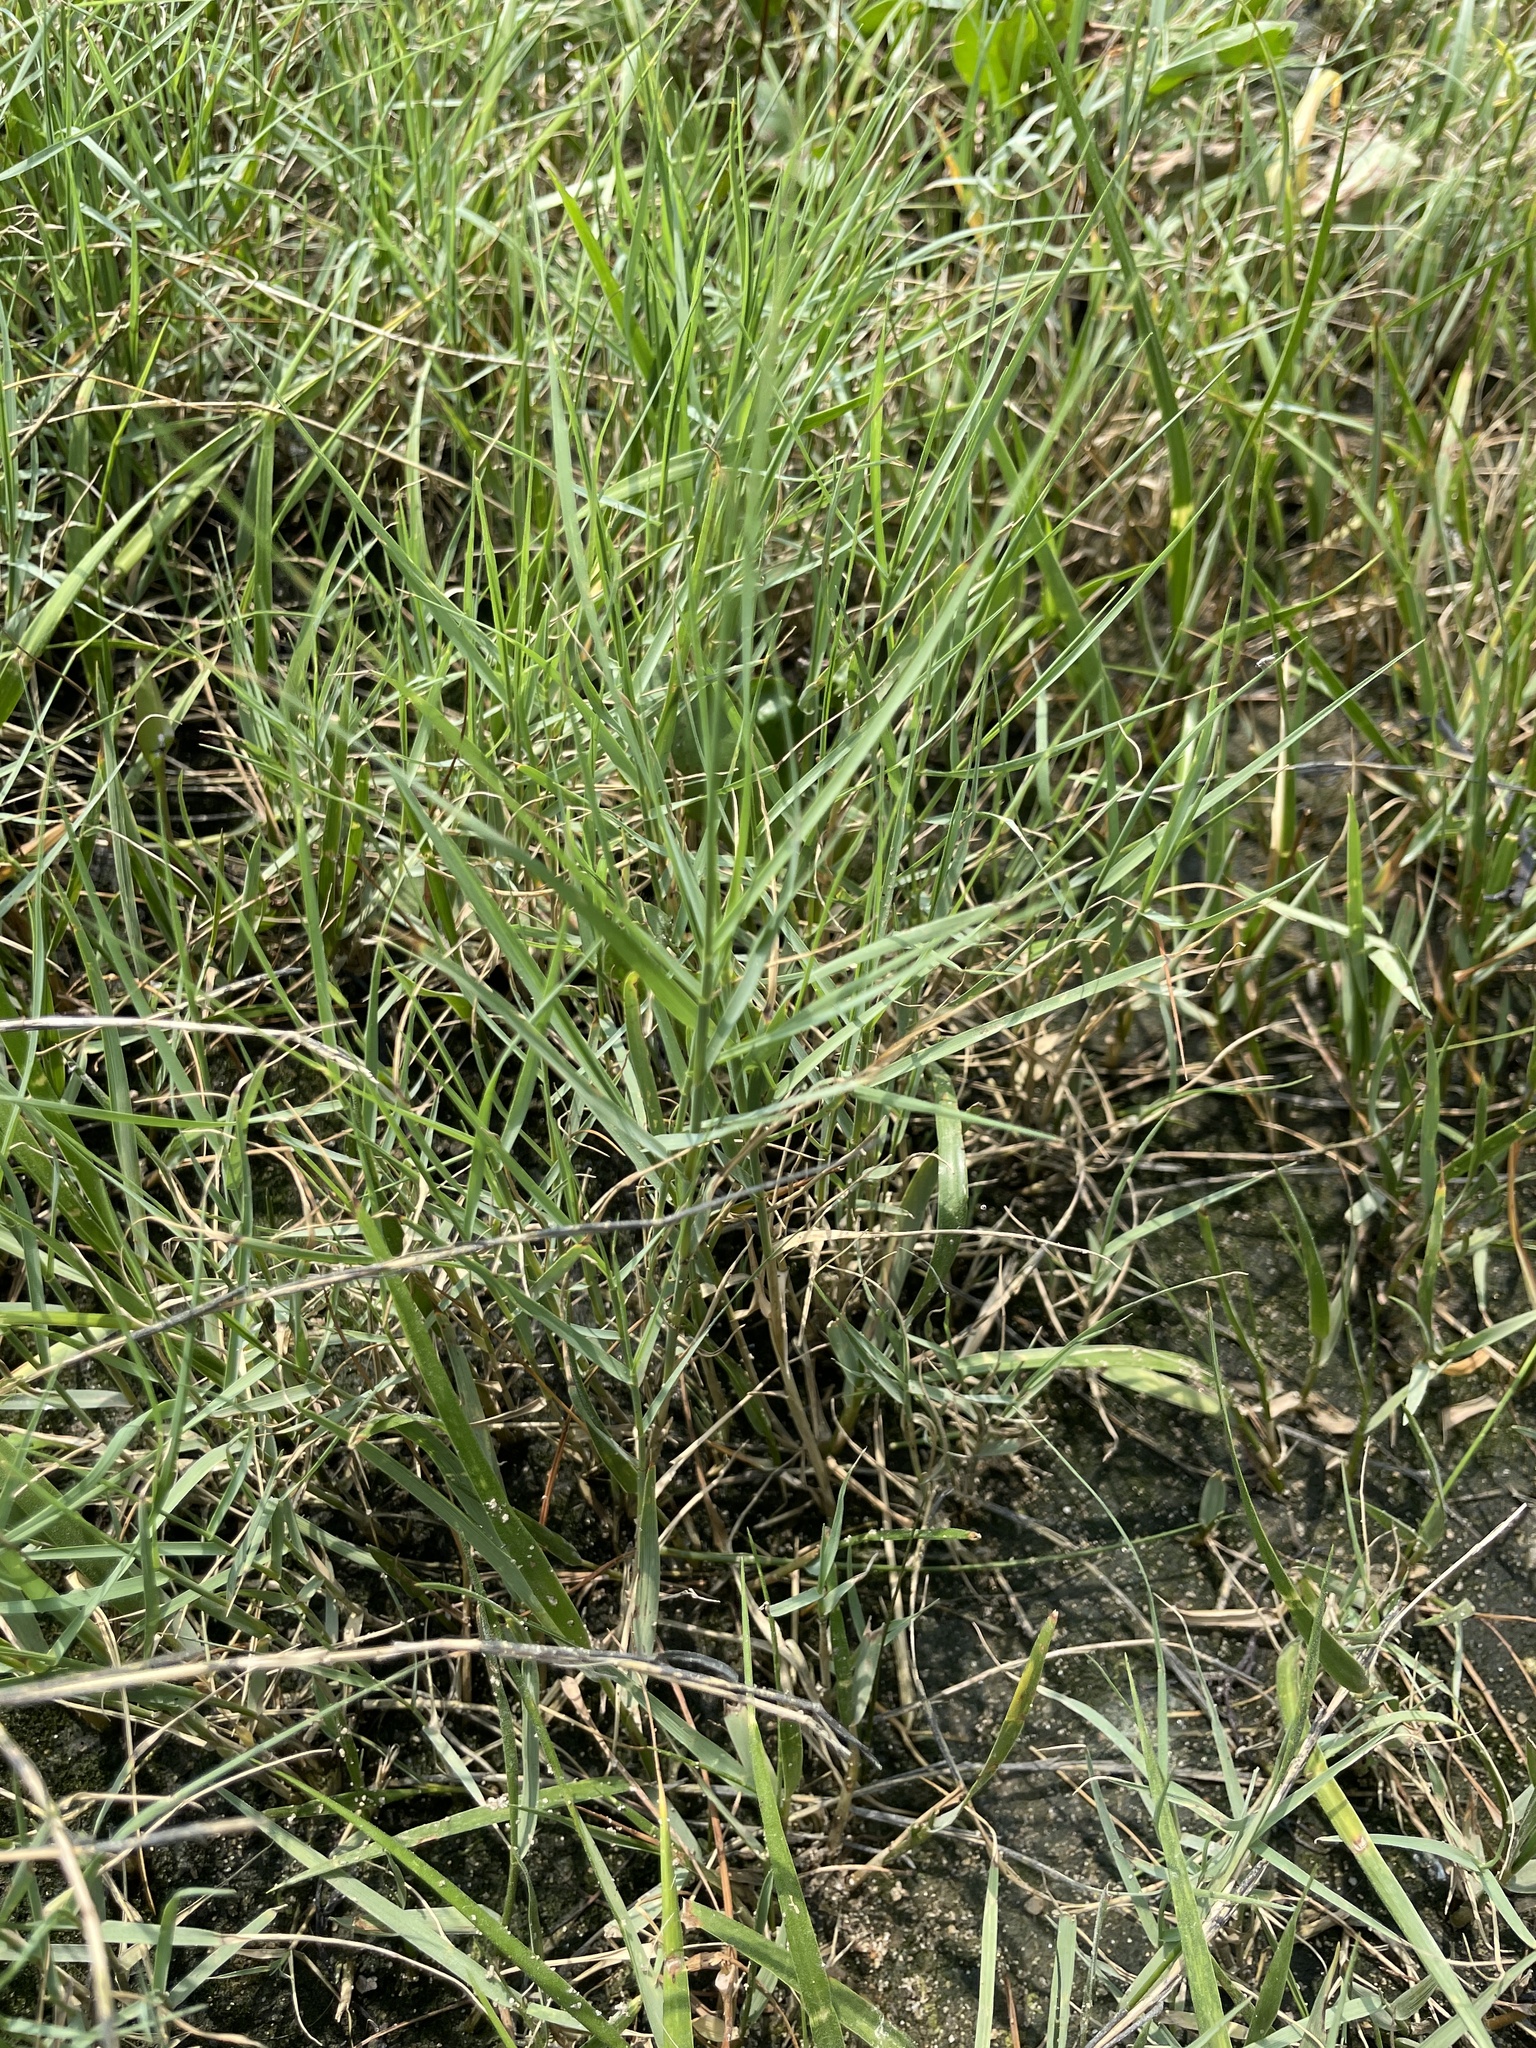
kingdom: Plantae
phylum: Tracheophyta
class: Liliopsida
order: Poales
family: Poaceae
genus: Distichlis
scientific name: Distichlis spicata
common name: Saltgrass
